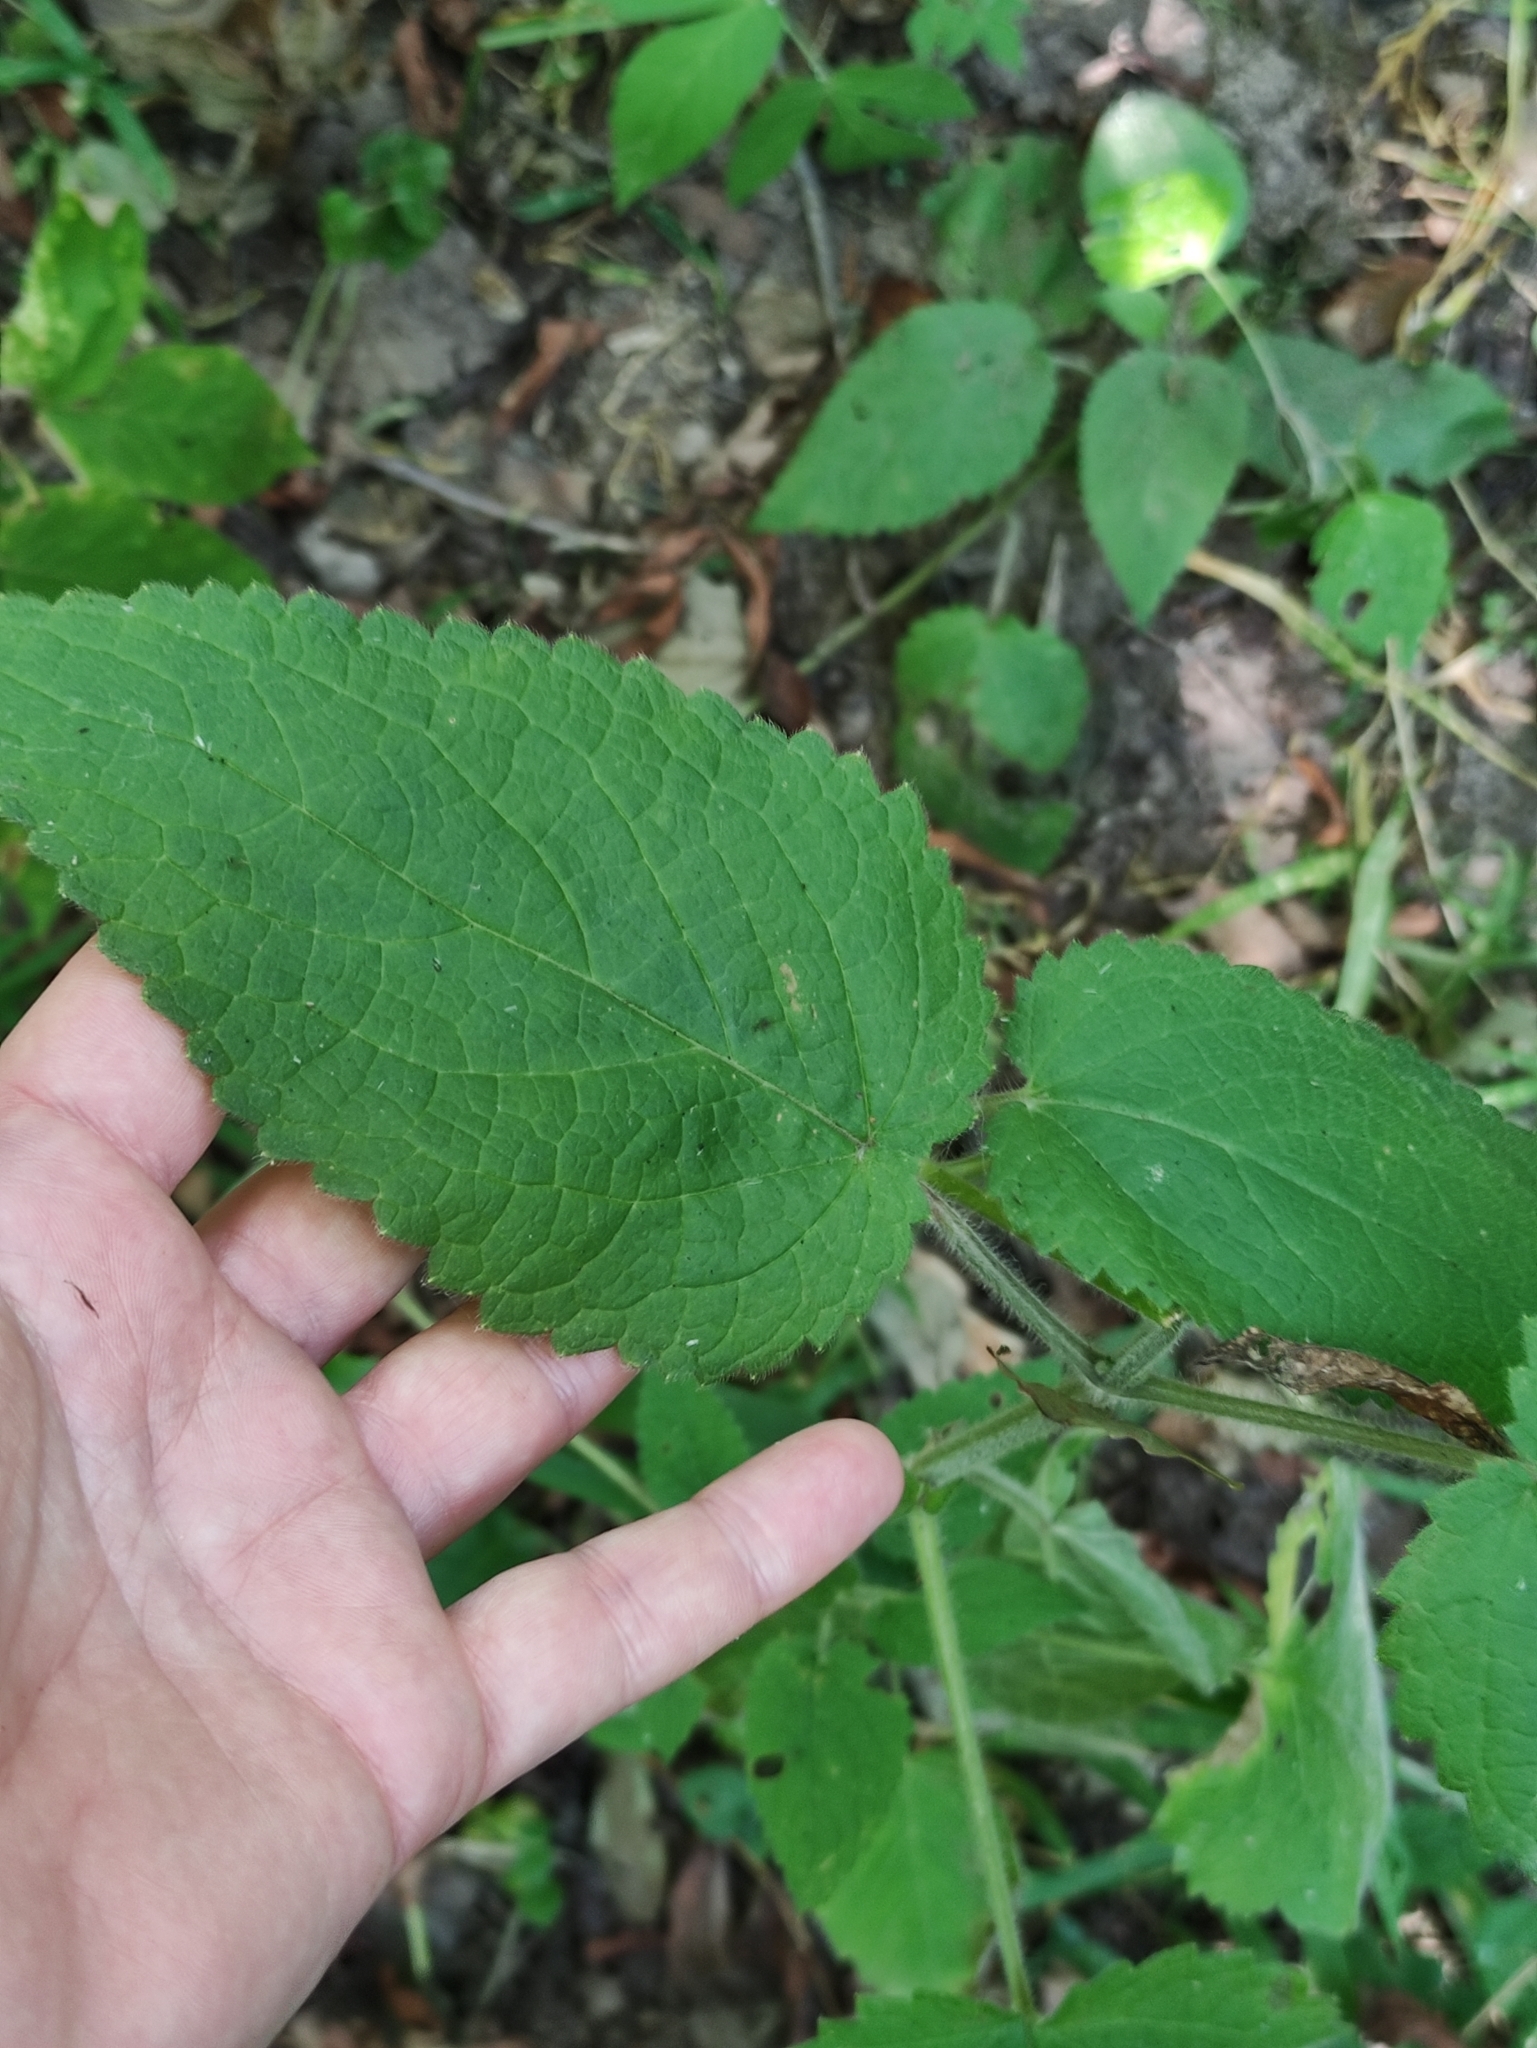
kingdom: Plantae
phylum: Tracheophyta
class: Magnoliopsida
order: Lamiales
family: Lamiaceae
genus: Stachys
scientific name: Stachys sylvatica
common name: Hedge woundwort
